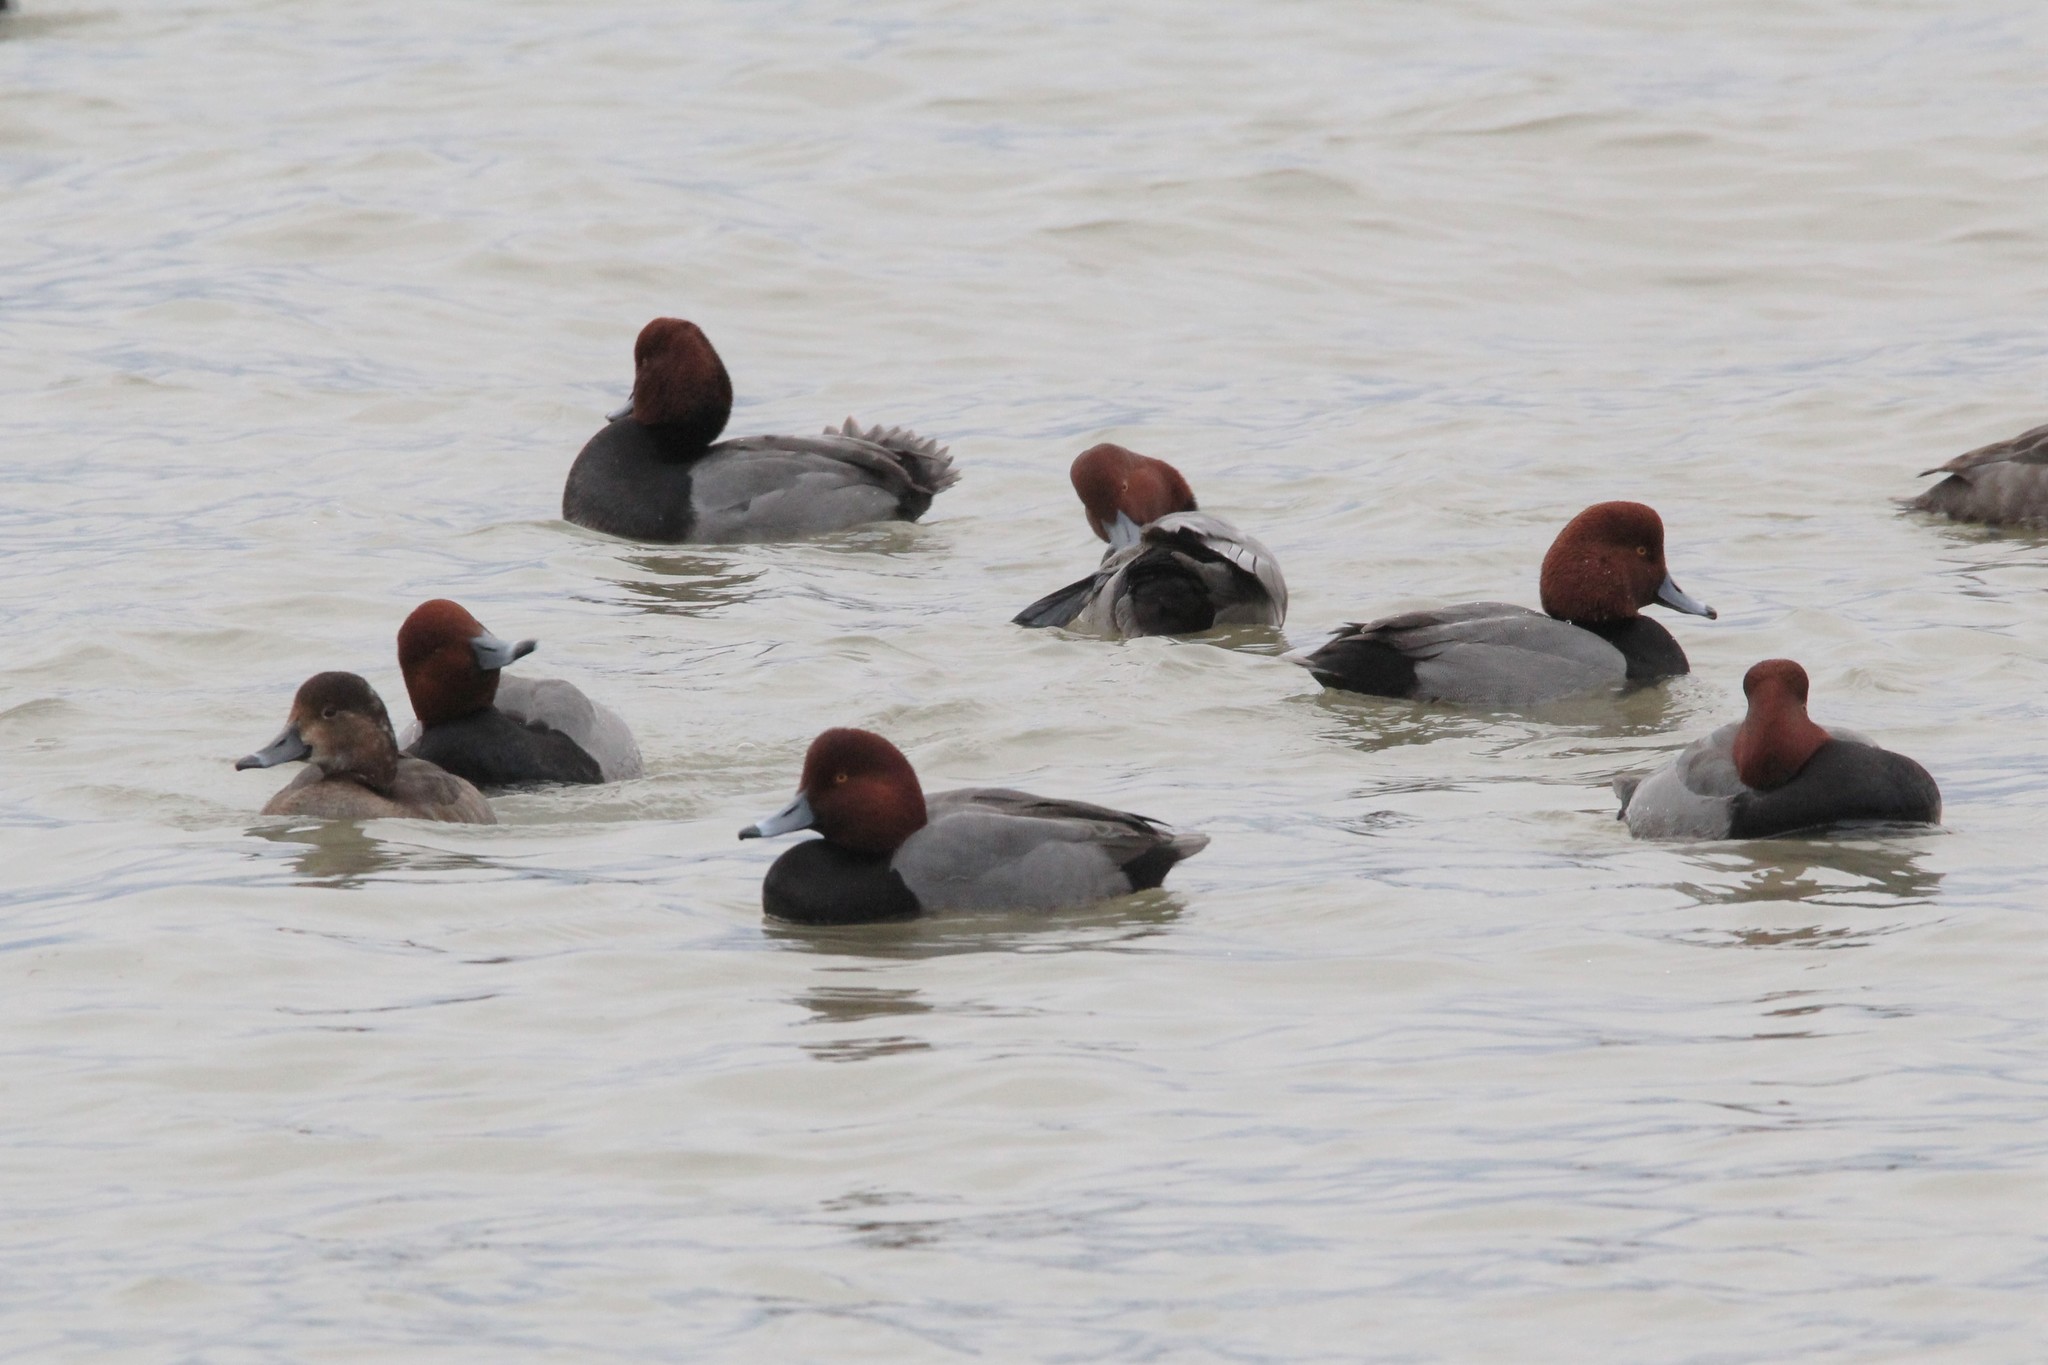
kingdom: Animalia
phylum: Chordata
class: Aves
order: Anseriformes
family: Anatidae
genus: Aythya
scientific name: Aythya americana
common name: Redhead
